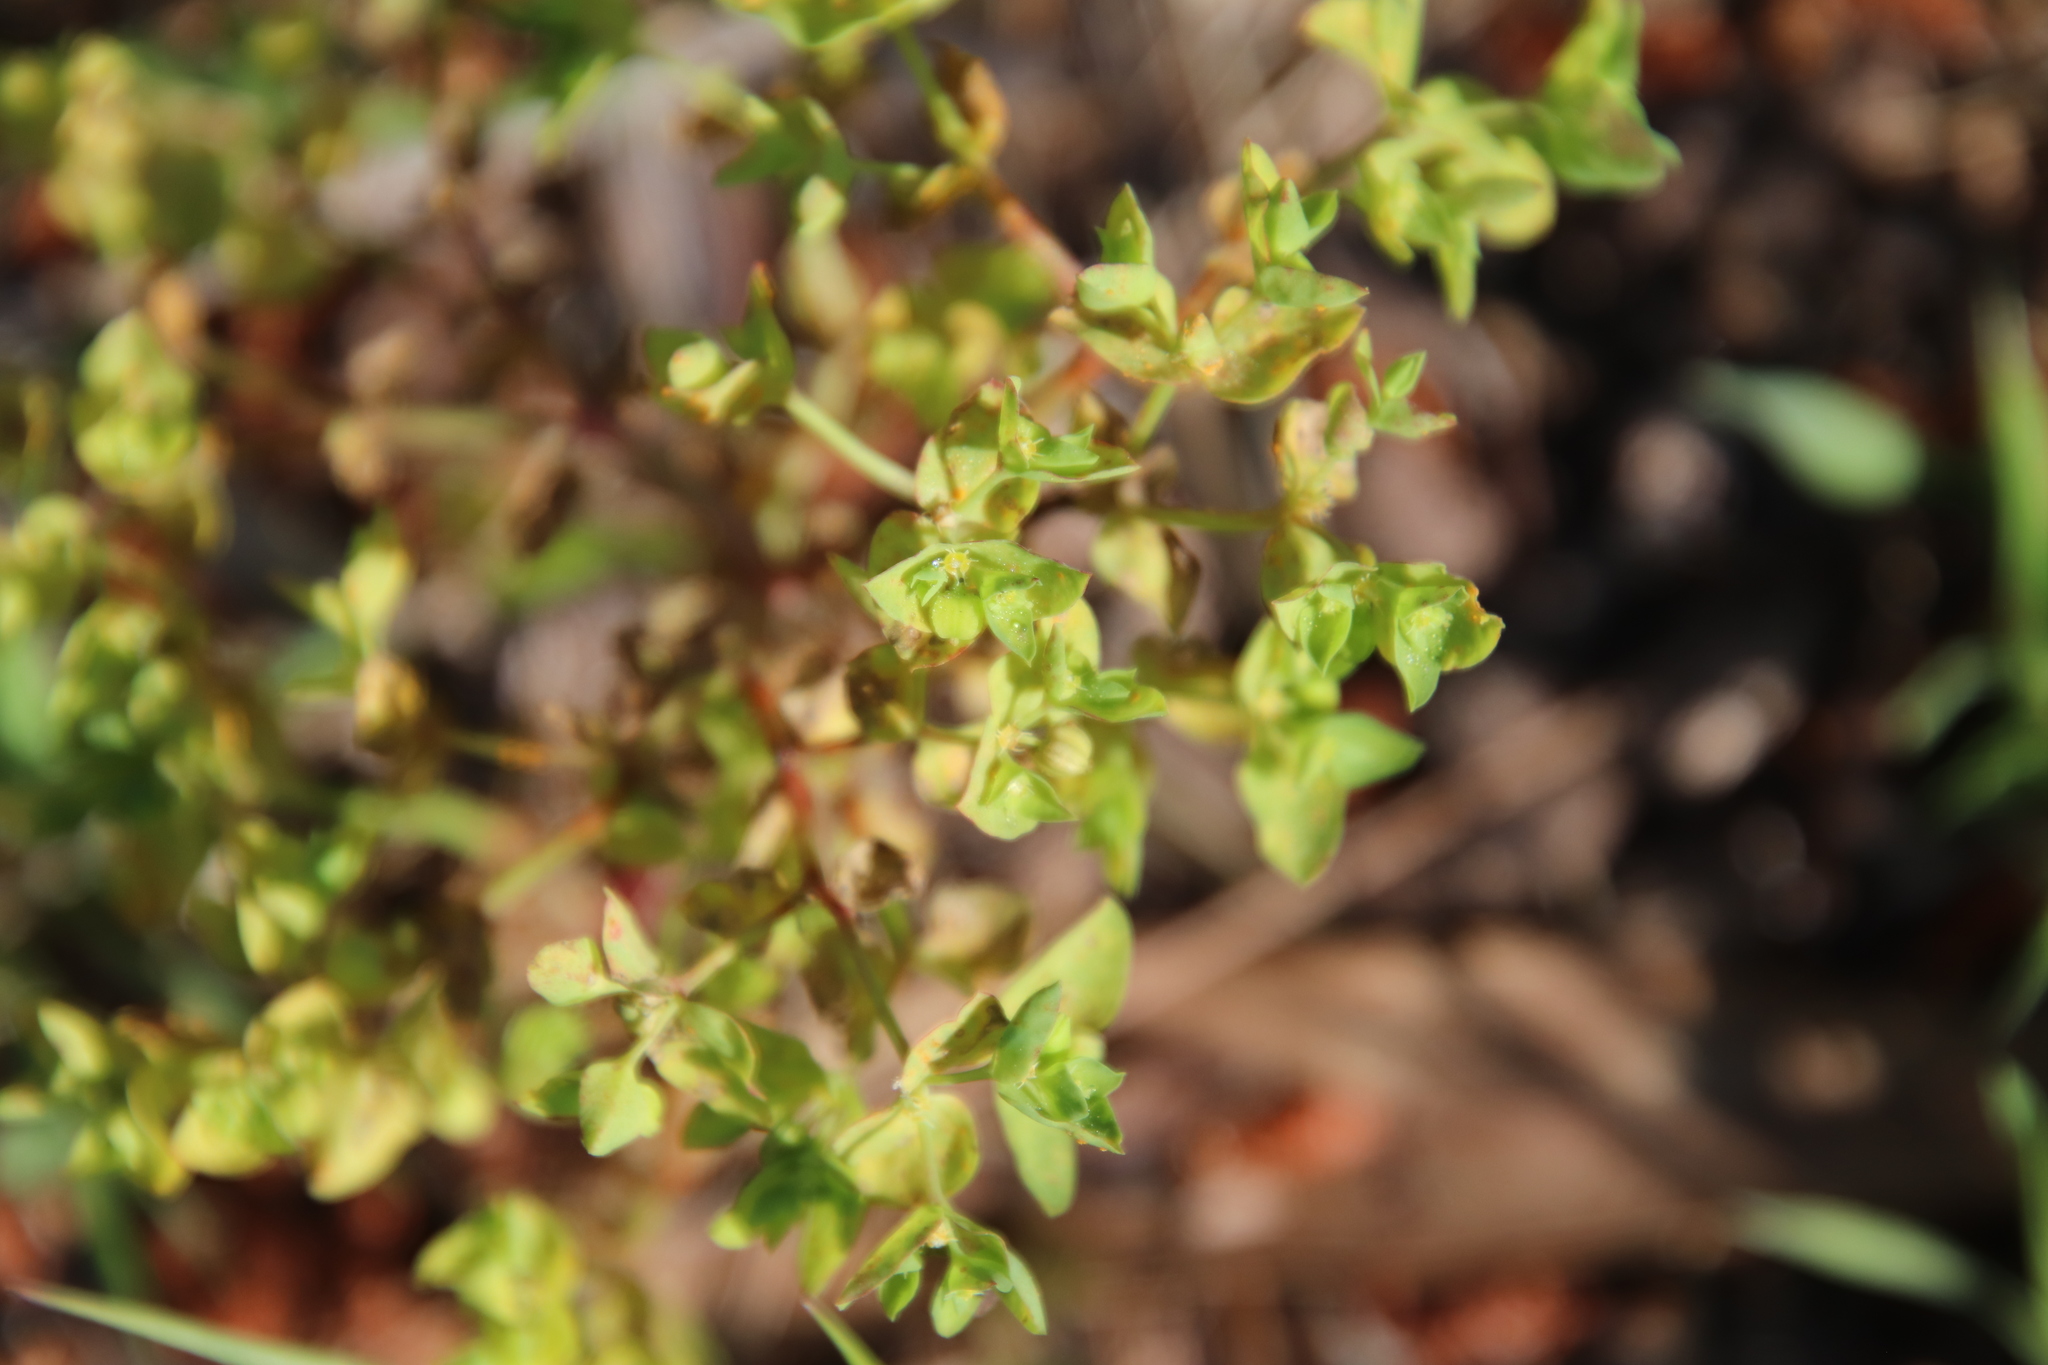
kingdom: Plantae
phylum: Tracheophyta
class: Magnoliopsida
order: Malpighiales
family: Euphorbiaceae
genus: Euphorbia
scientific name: Euphorbia peplus
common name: Petty spurge
